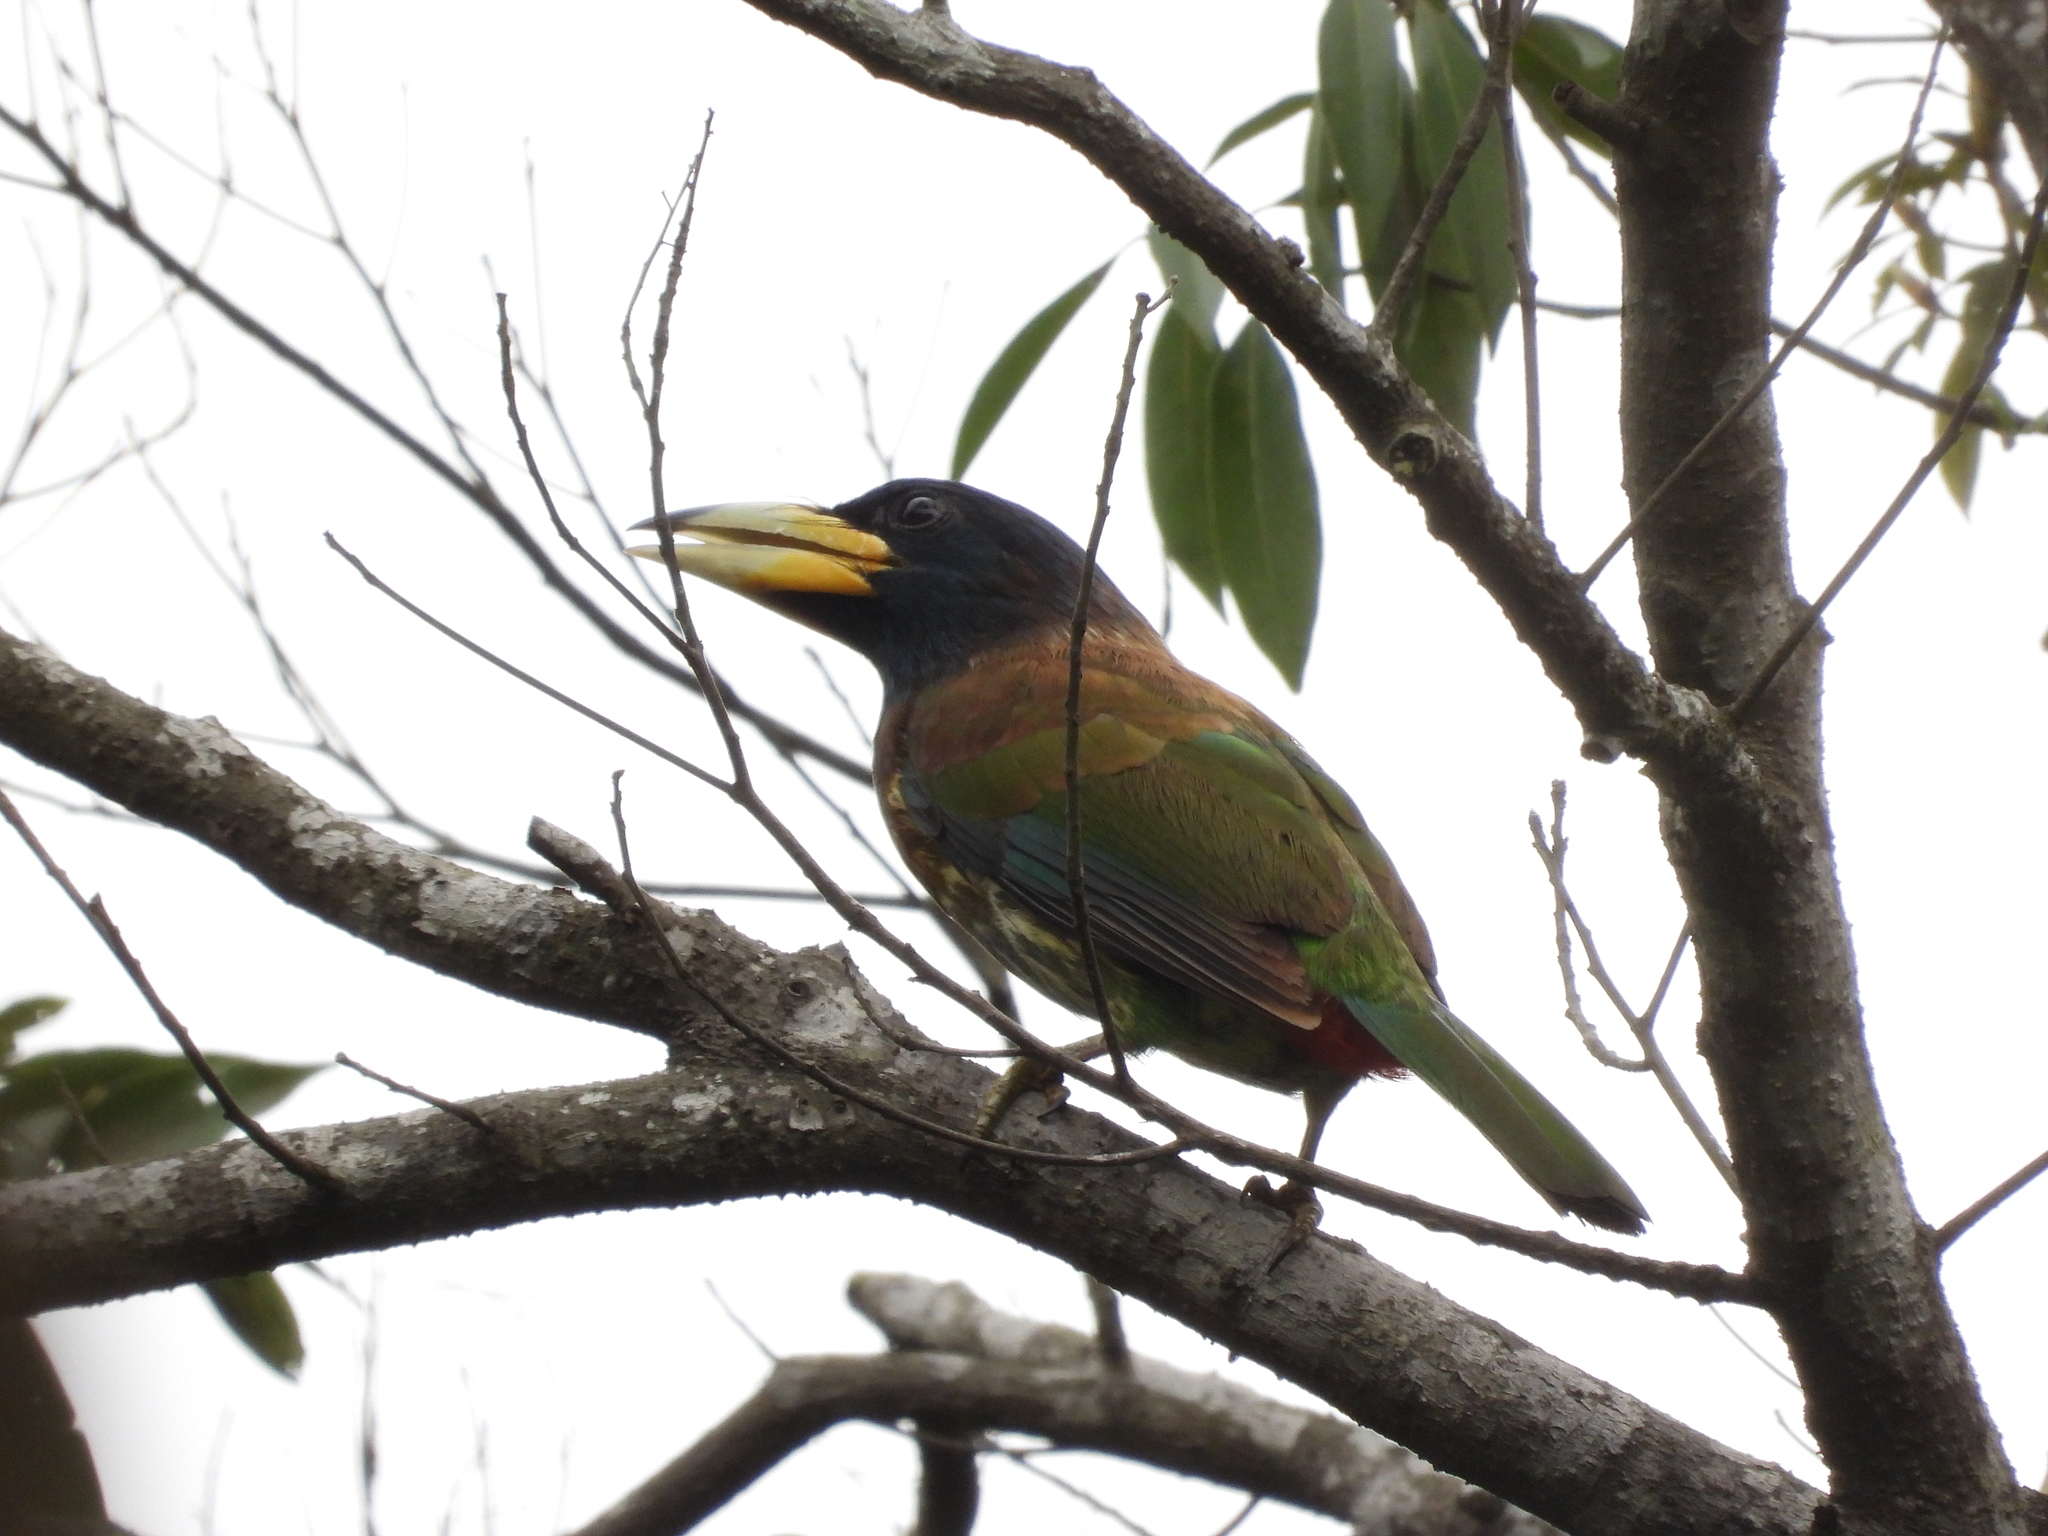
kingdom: Animalia
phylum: Chordata
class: Aves
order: Piciformes
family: Megalaimidae
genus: Psilopogon
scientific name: Psilopogon virens
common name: Great barbet
